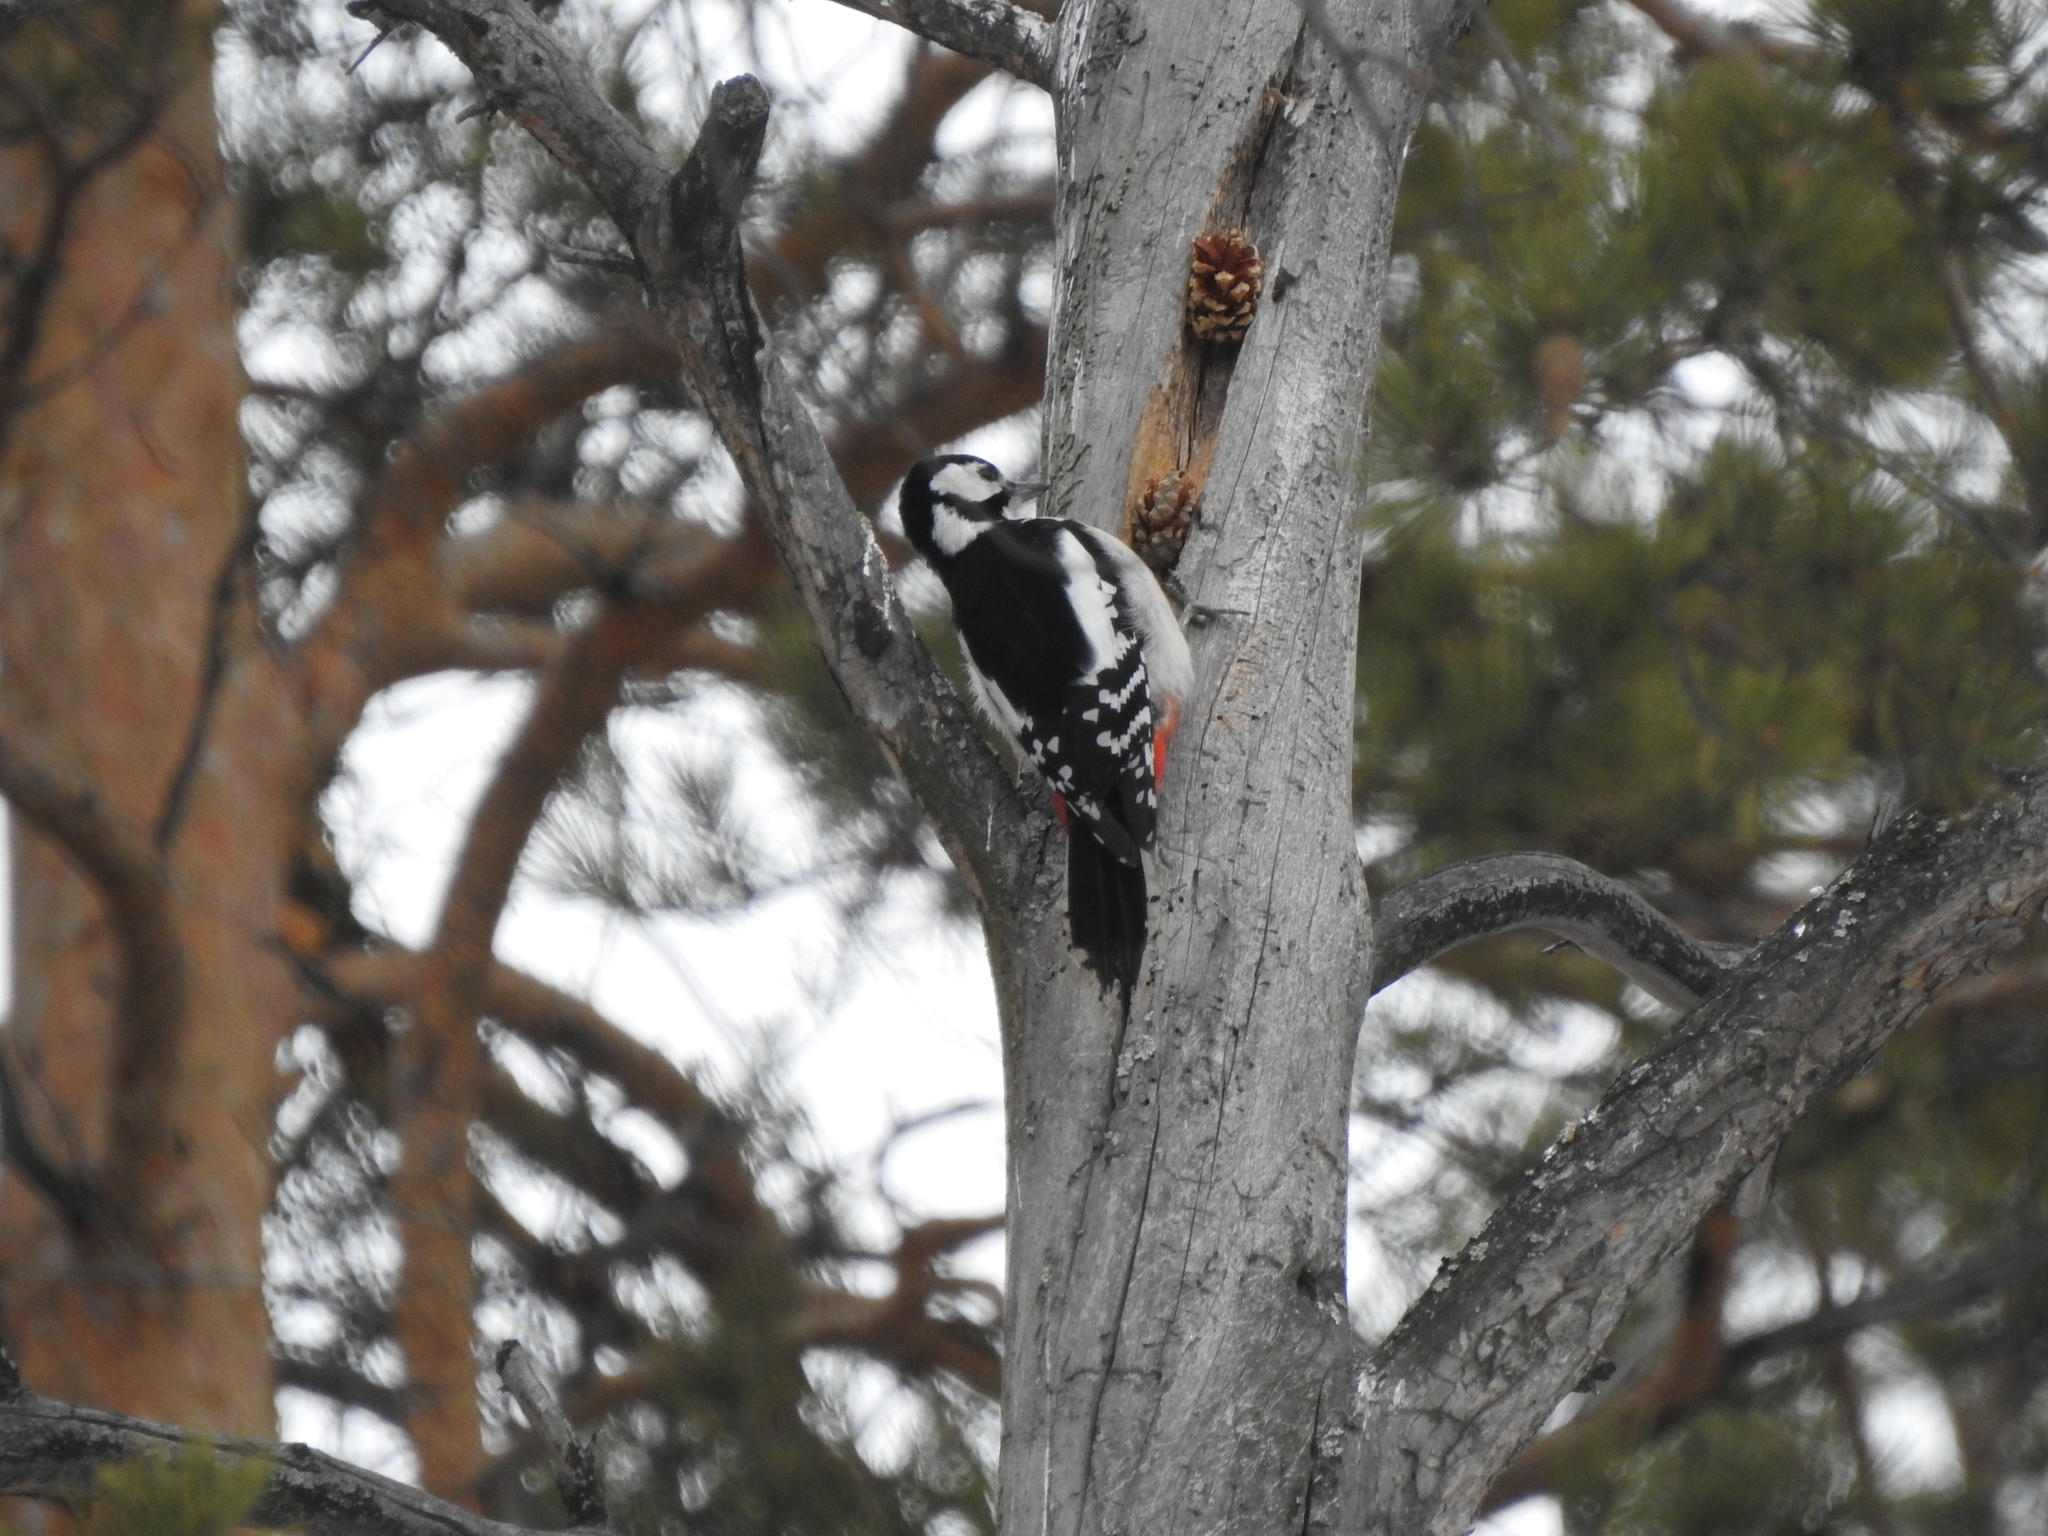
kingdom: Animalia
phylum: Chordata
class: Aves
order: Piciformes
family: Picidae
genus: Dendrocopos
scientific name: Dendrocopos major
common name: Great spotted woodpecker
